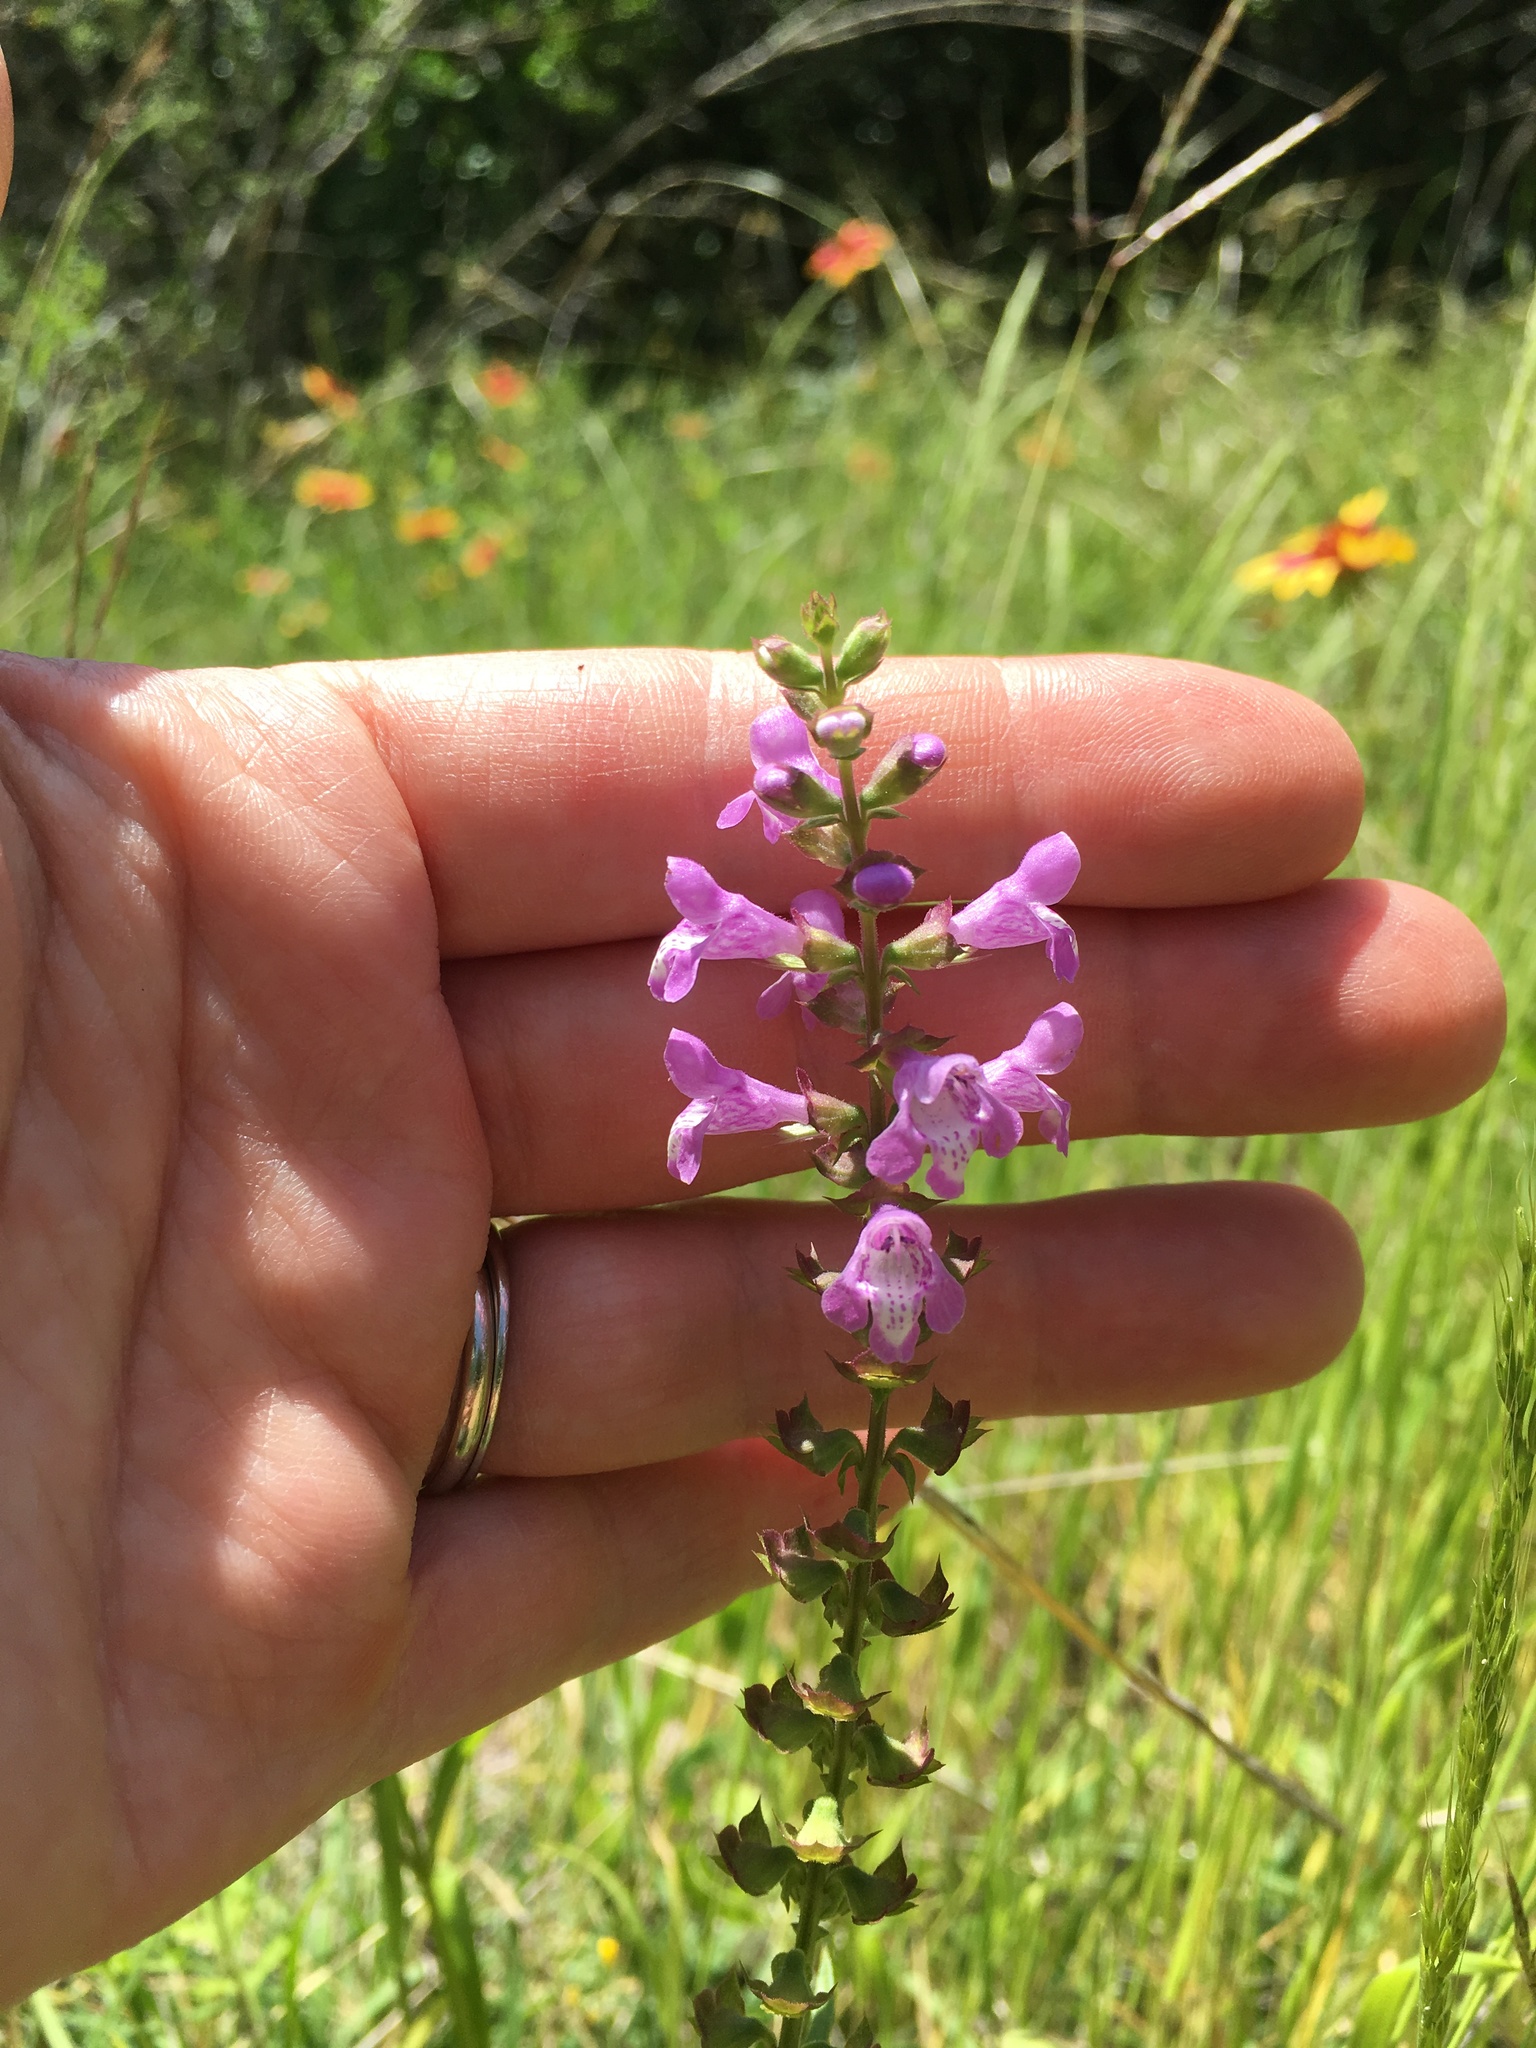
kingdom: Plantae
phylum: Tracheophyta
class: Magnoliopsida
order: Lamiales
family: Lamiaceae
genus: Warnockia
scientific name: Warnockia scutellarioides
